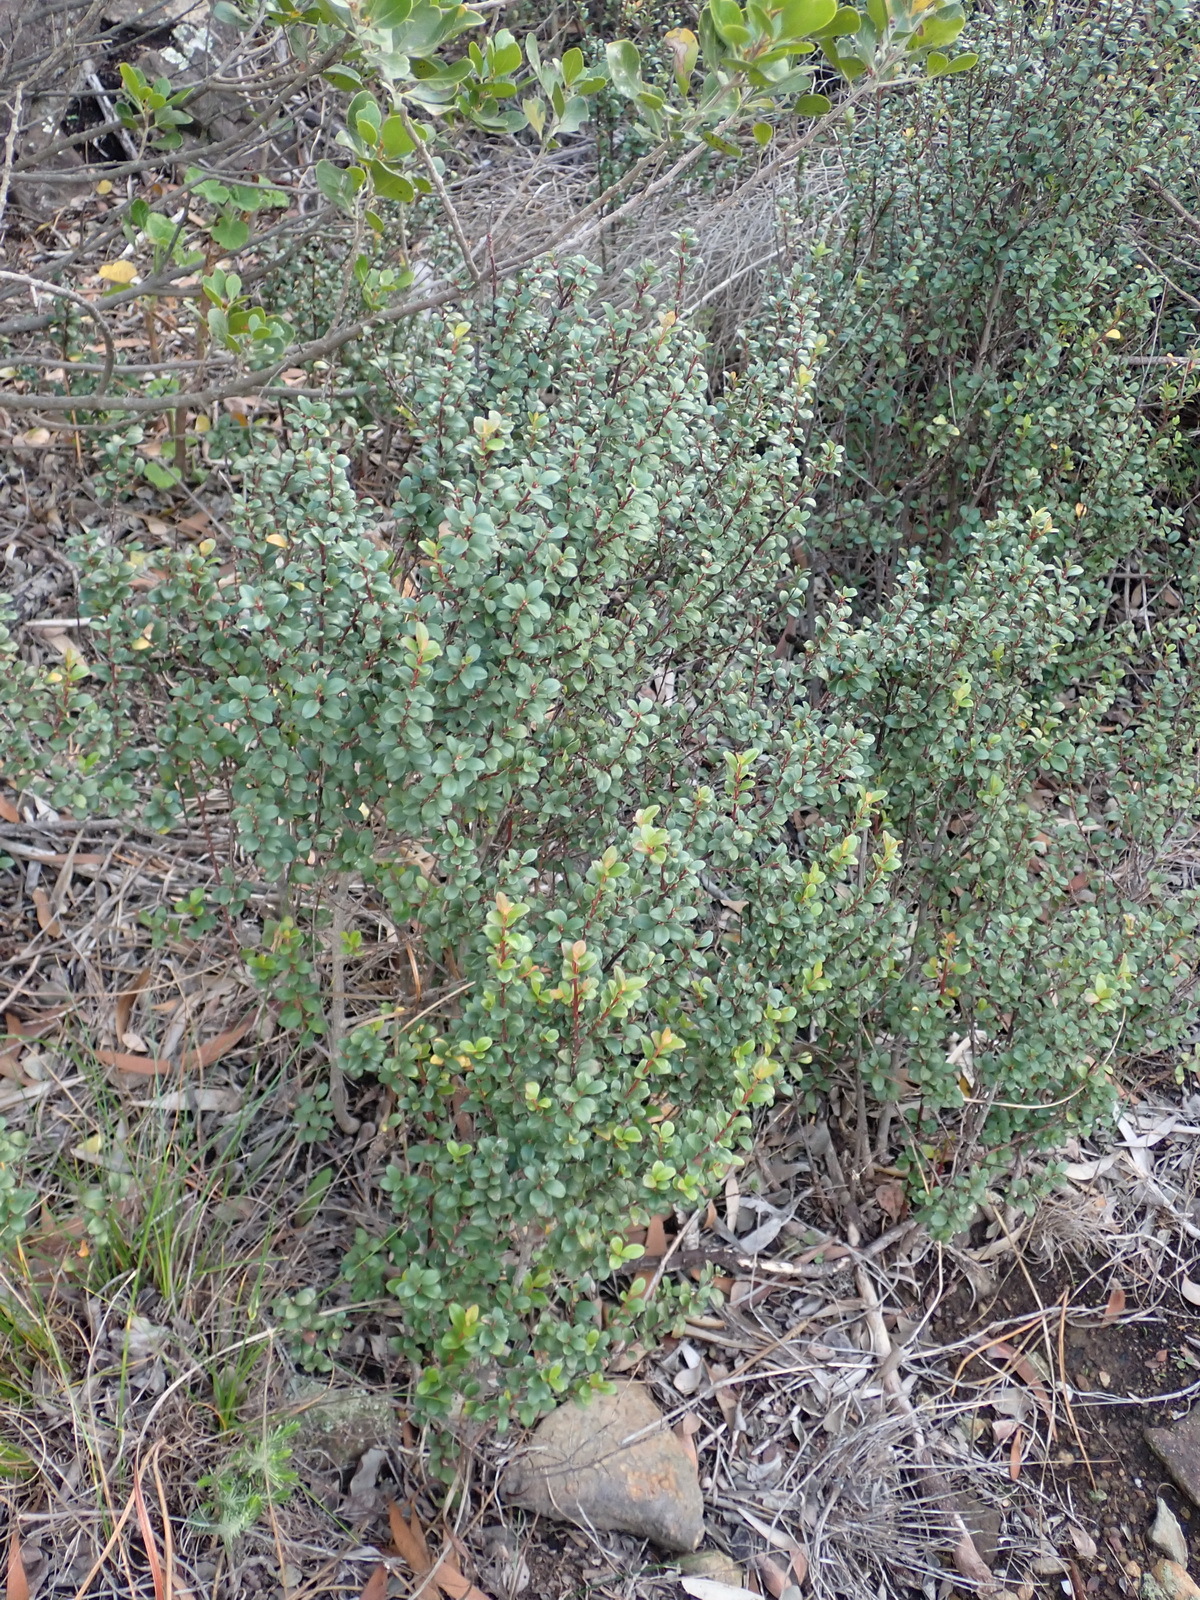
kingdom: Plantae
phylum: Tracheophyta
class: Magnoliopsida
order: Ericales
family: Primulaceae
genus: Myrsine
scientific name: Myrsine africana
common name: African-boxwood
